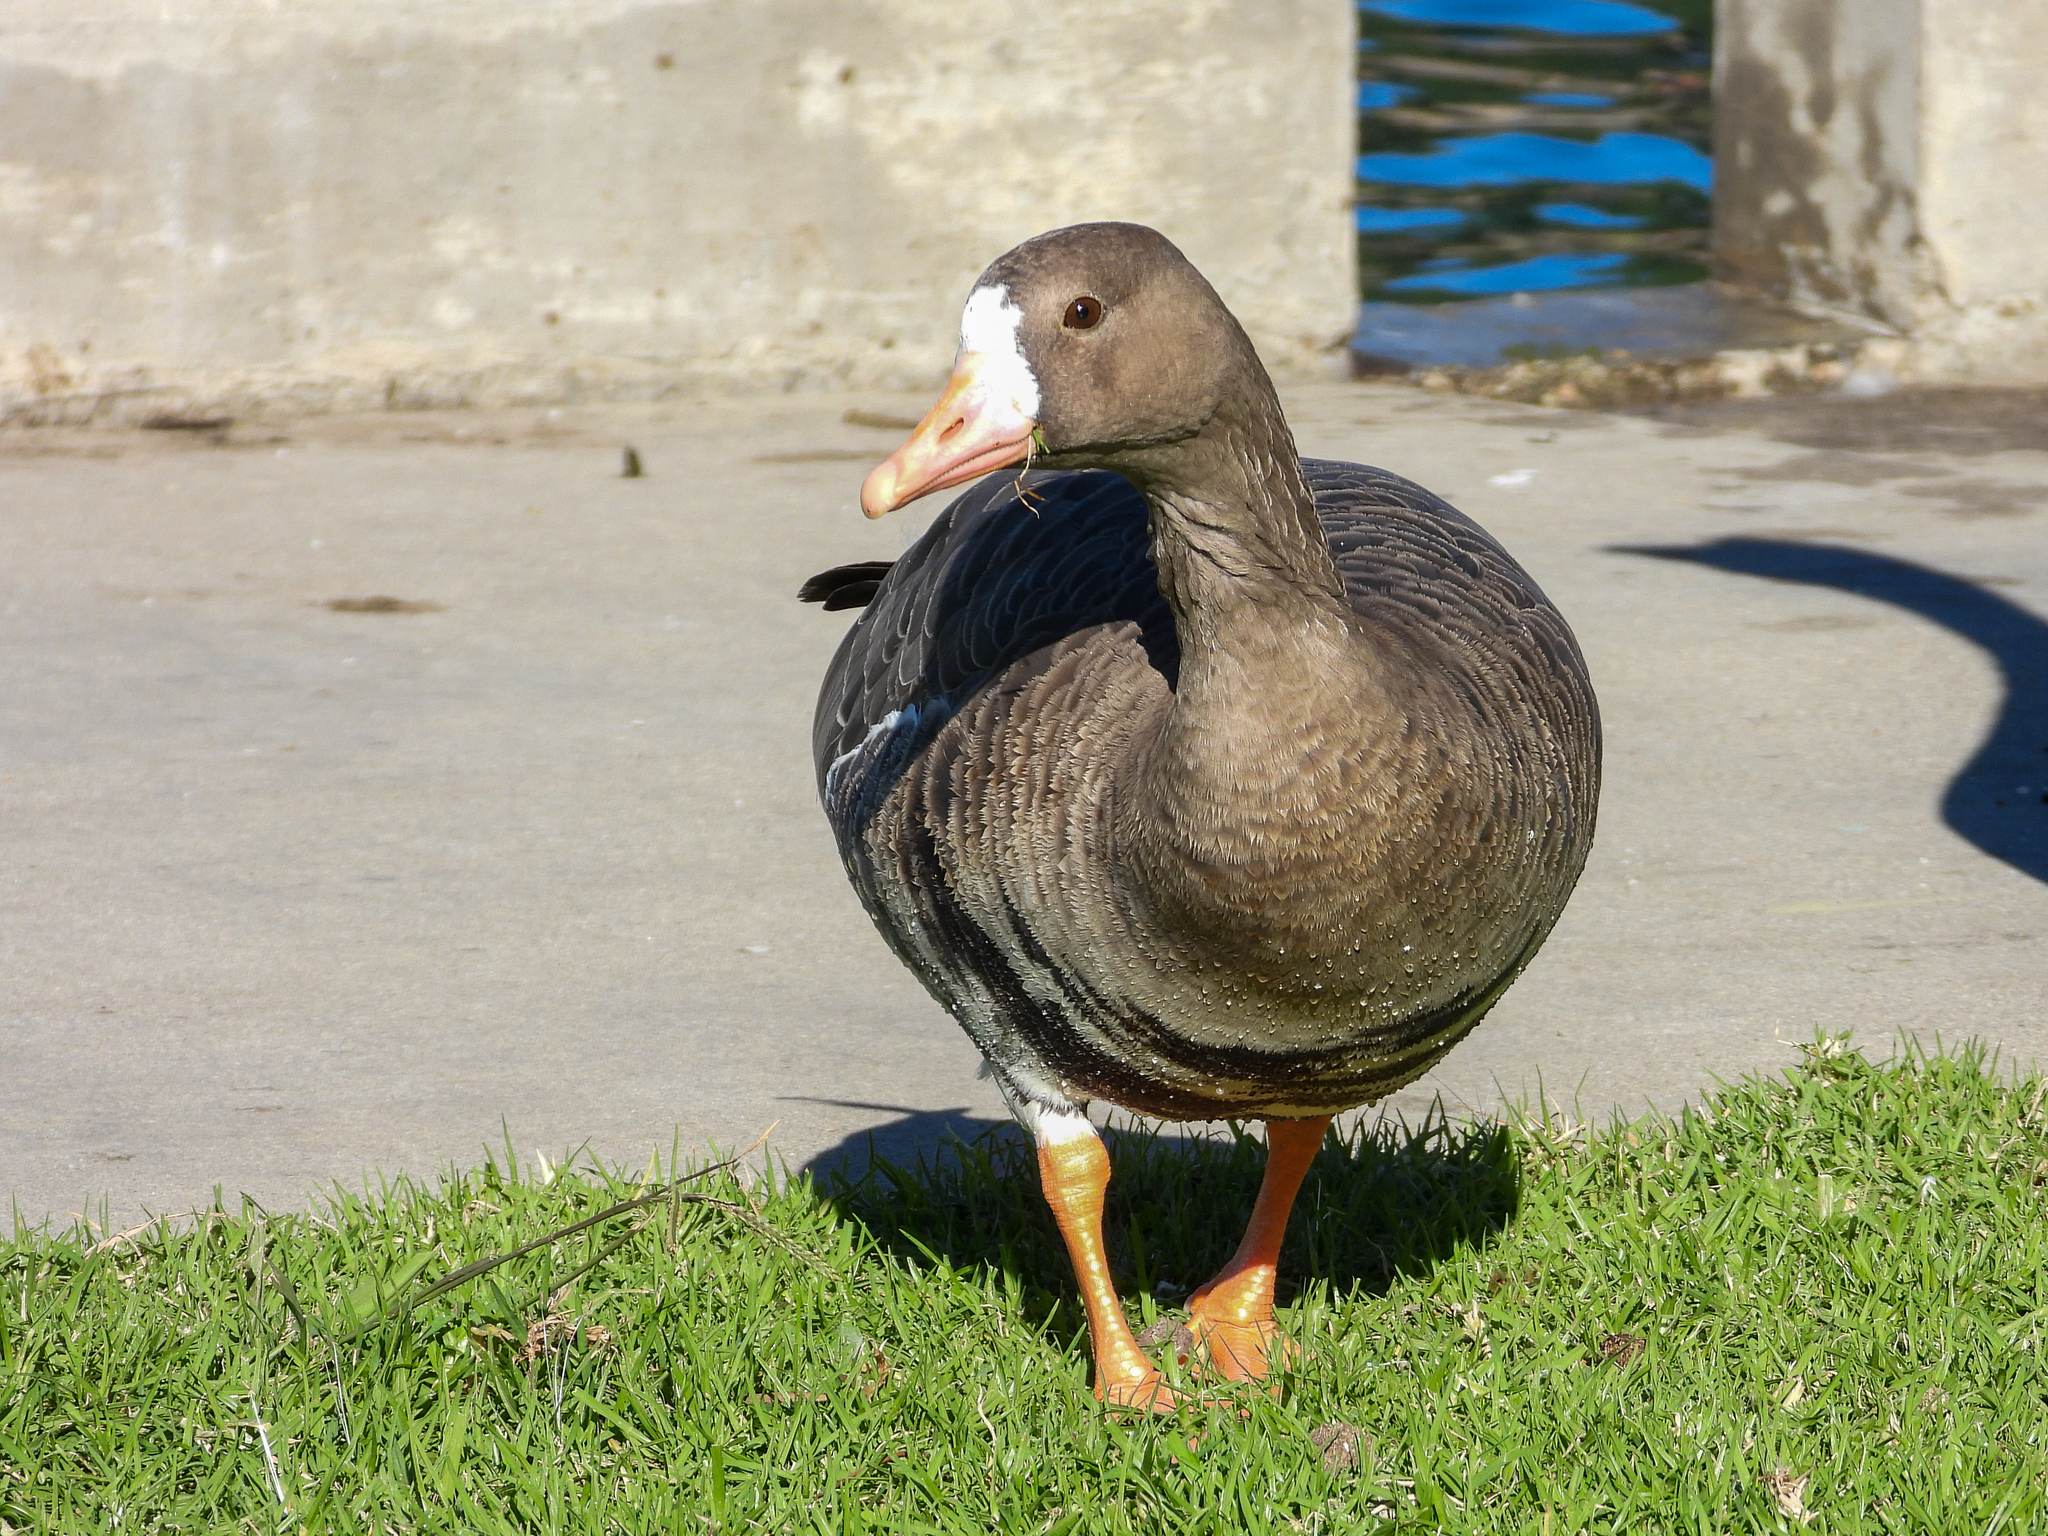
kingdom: Animalia
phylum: Chordata
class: Aves
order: Anseriformes
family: Anatidae
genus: Anser
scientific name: Anser albifrons
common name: Greater white-fronted goose
